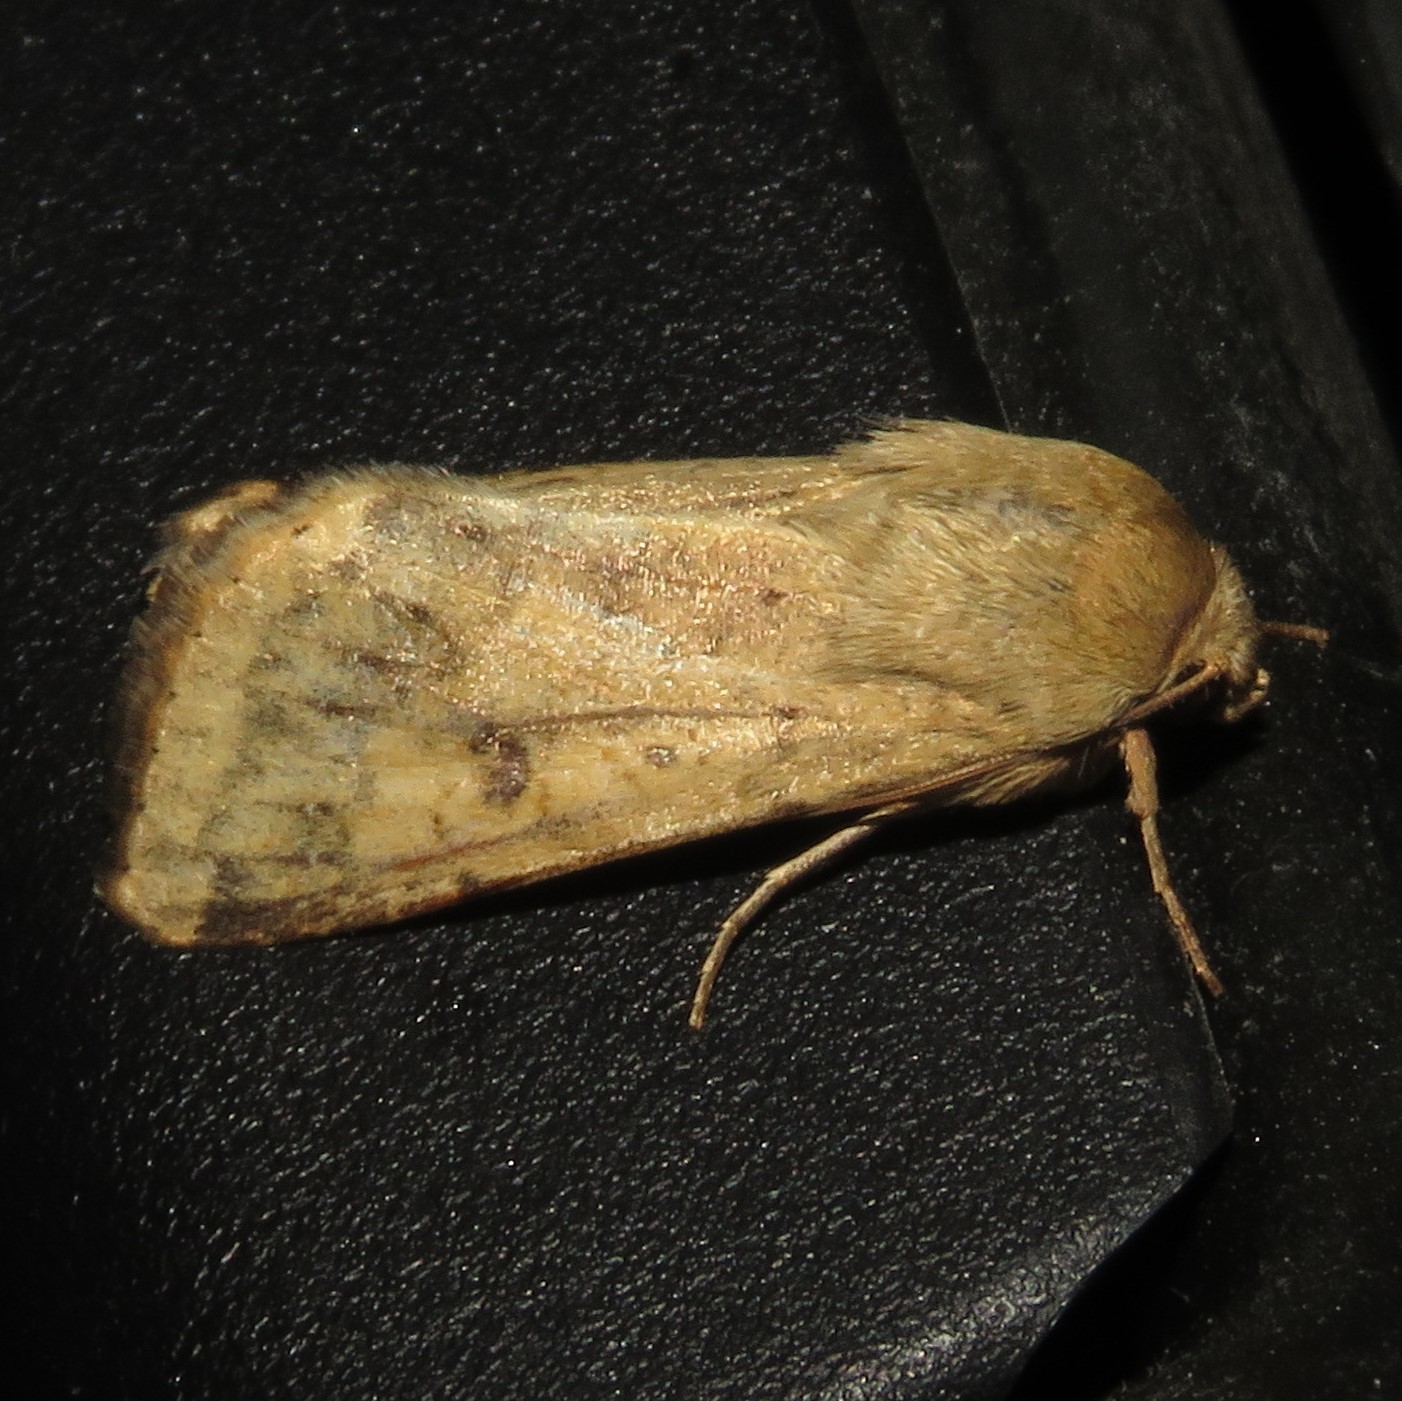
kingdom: Animalia
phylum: Arthropoda
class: Insecta
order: Lepidoptera
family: Noctuidae
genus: Helicoverpa
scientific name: Helicoverpa zea
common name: Bollworm
